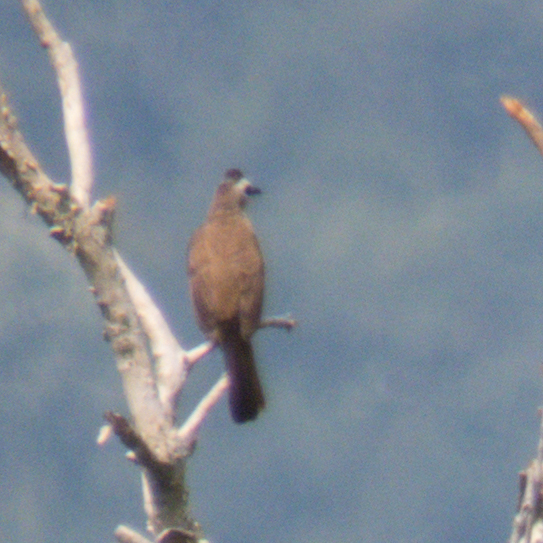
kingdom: Animalia
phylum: Chordata
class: Aves
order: Passeriformes
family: Pycnonotidae
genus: Pycnonotus
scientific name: Pycnonotus goiavier
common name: Yellow-vented bulbul
